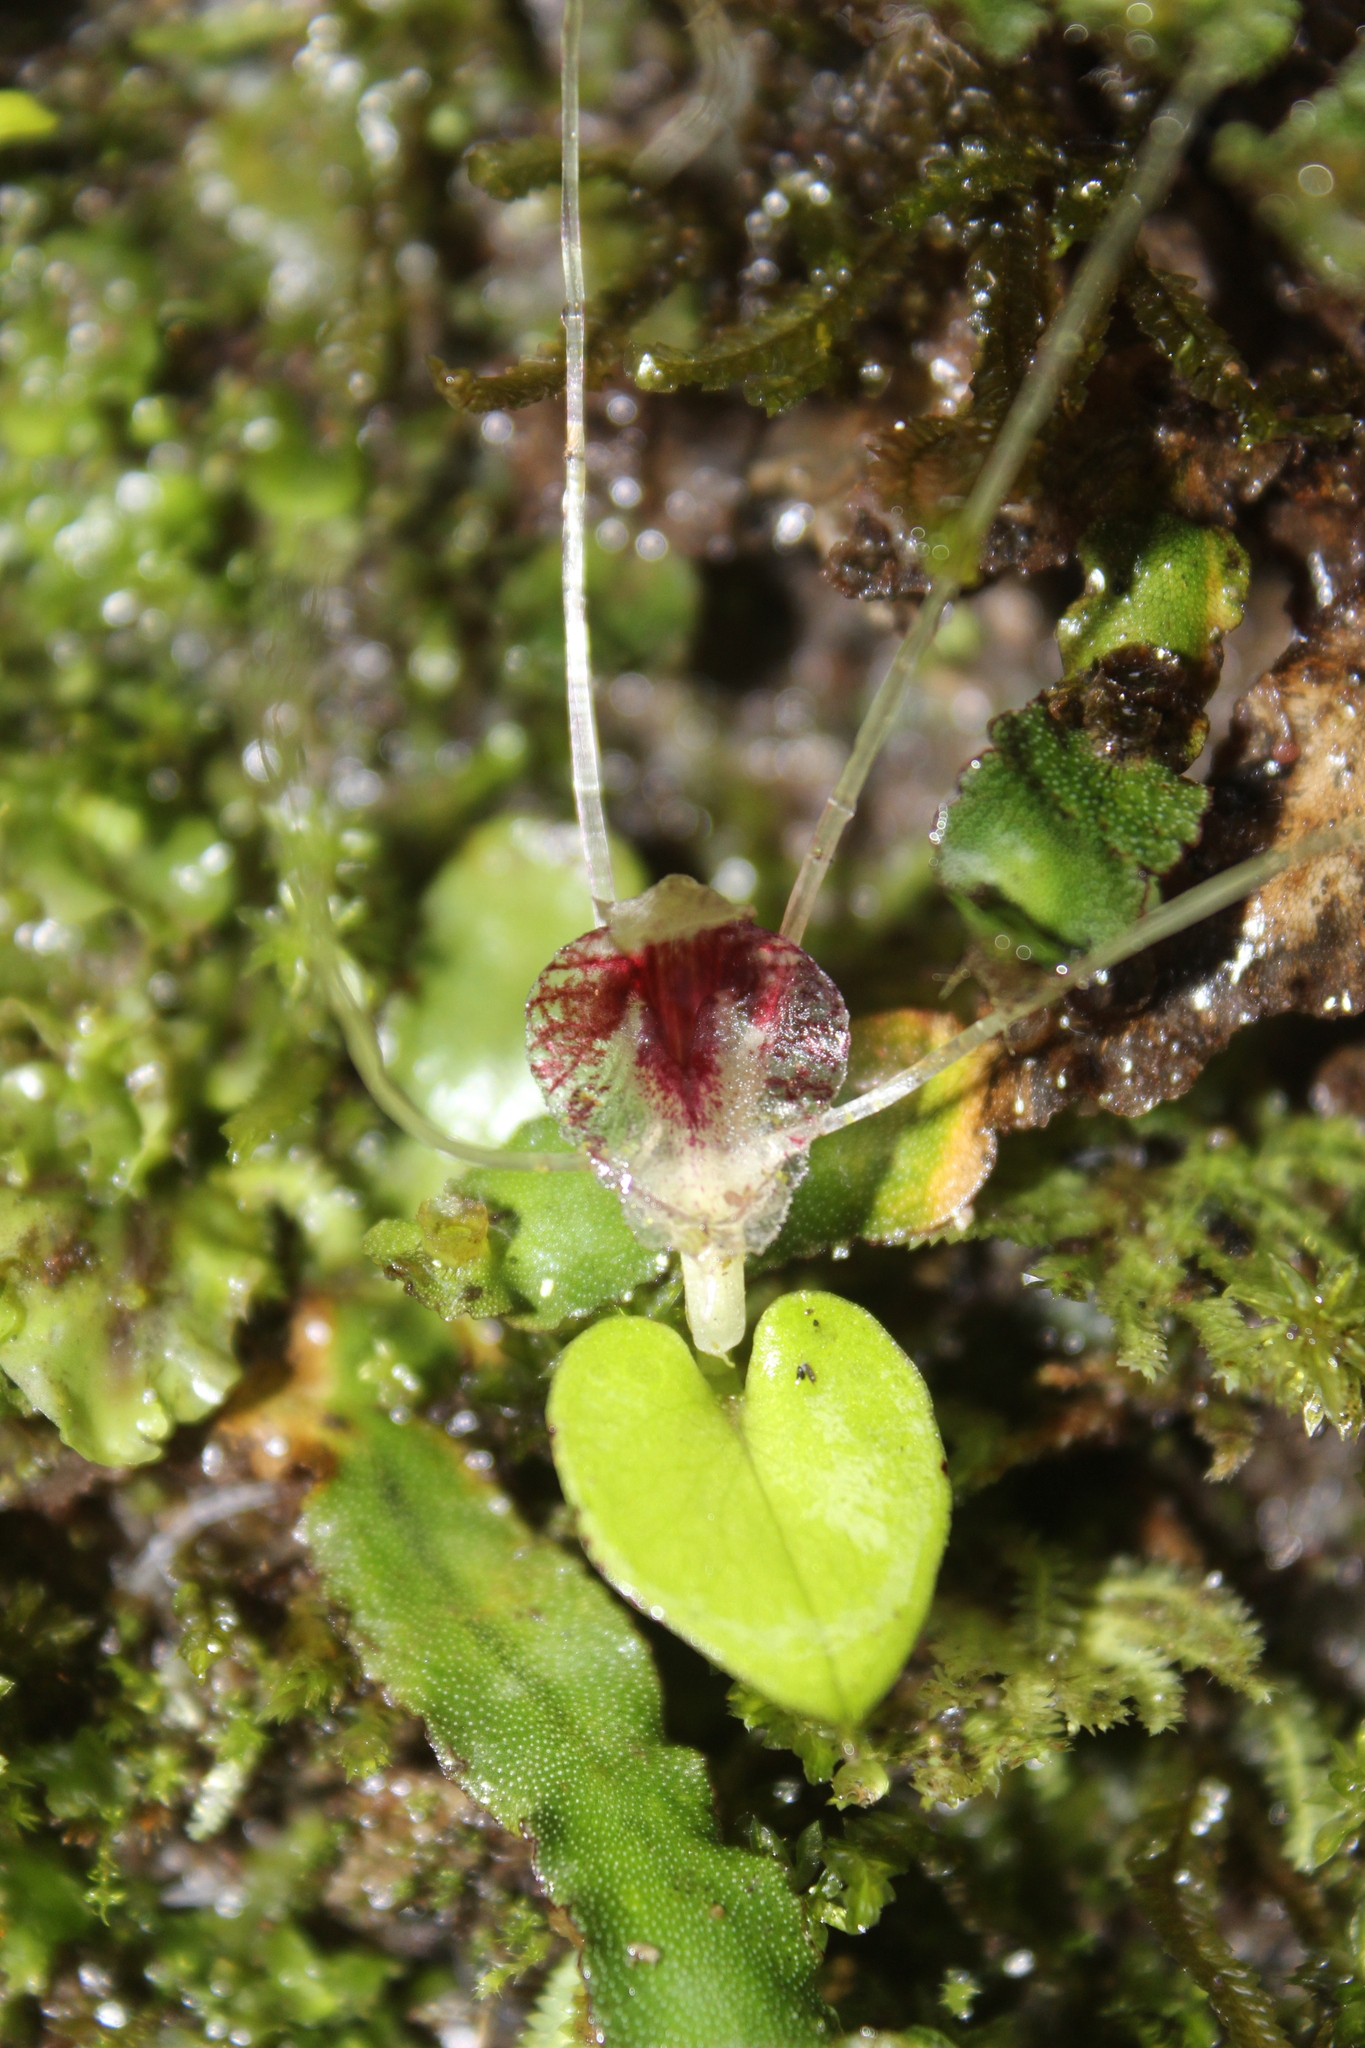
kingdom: Plantae
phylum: Tracheophyta
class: Liliopsida
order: Asparagales
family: Orchidaceae
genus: Corybas
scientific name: Corybas hatchii
